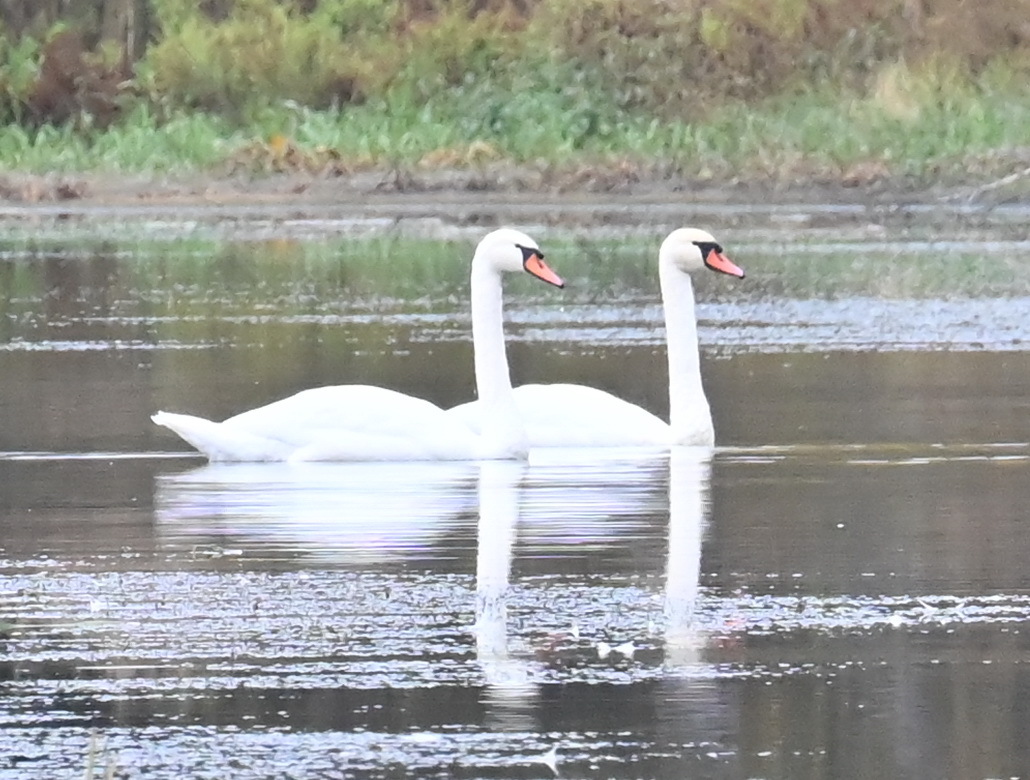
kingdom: Animalia
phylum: Chordata
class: Aves
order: Anseriformes
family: Anatidae
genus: Cygnus
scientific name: Cygnus olor
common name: Mute swan
